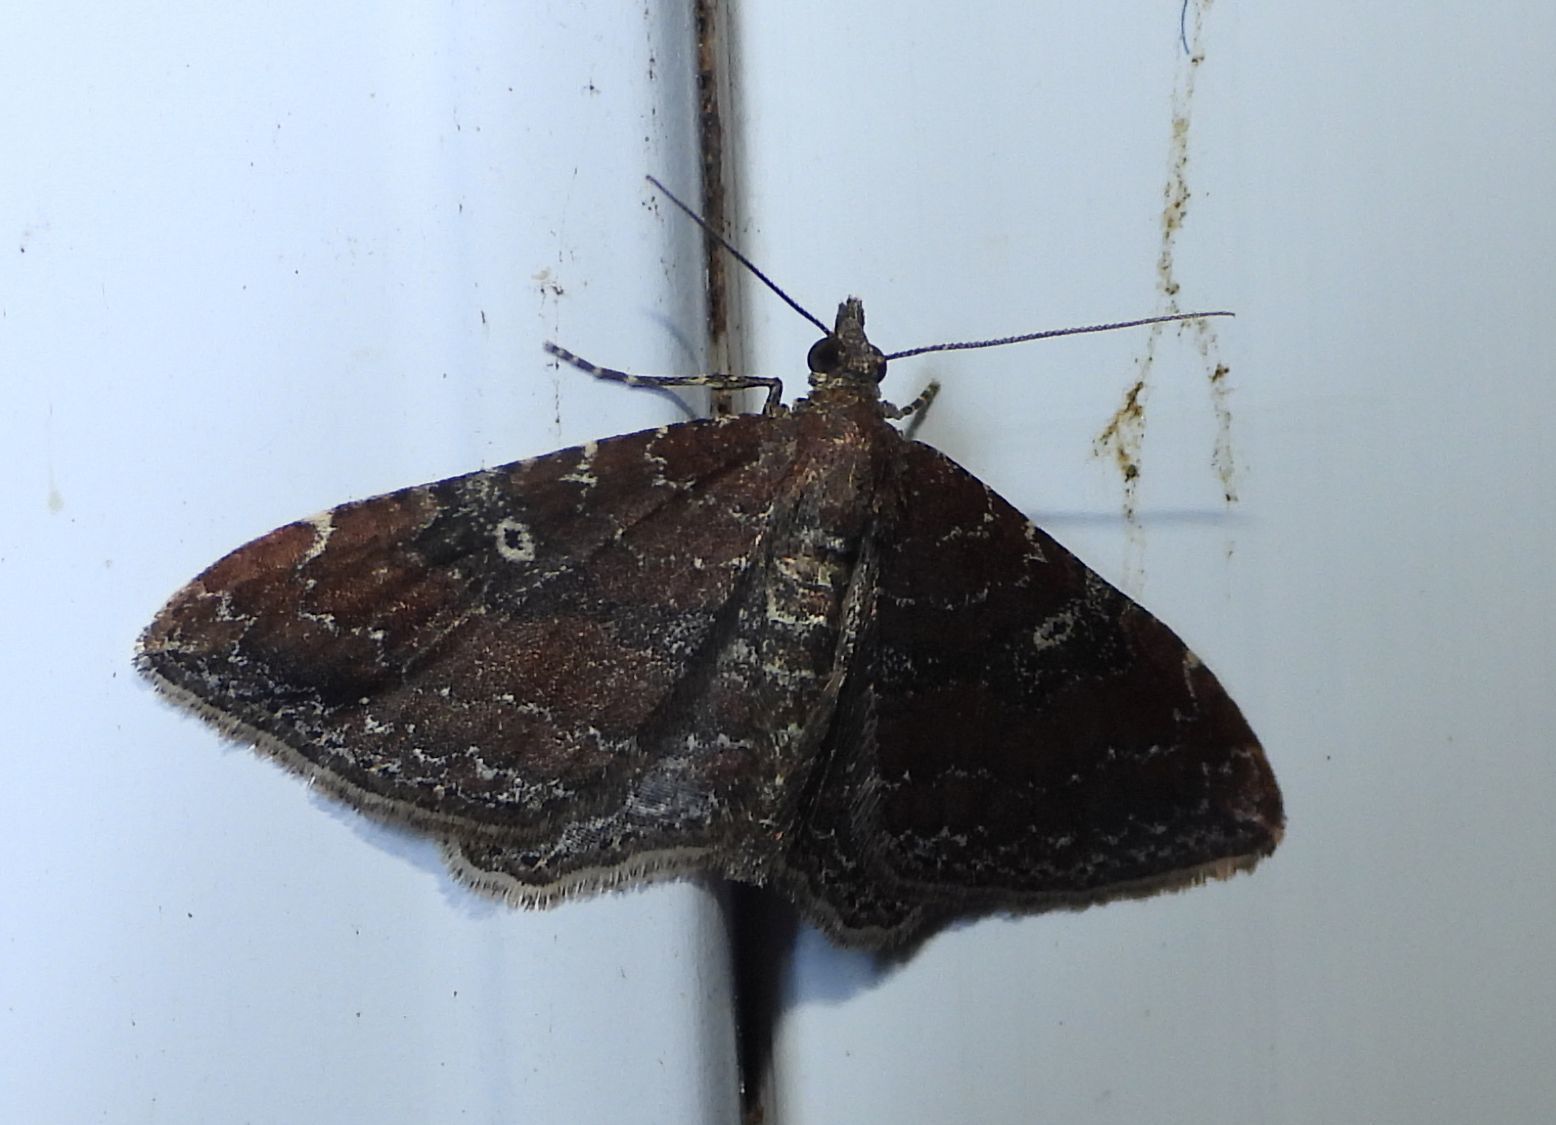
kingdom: Animalia
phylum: Arthropoda
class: Insecta
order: Lepidoptera
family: Geometridae
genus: Orthonama
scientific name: Orthonama obstipata
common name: The gem
